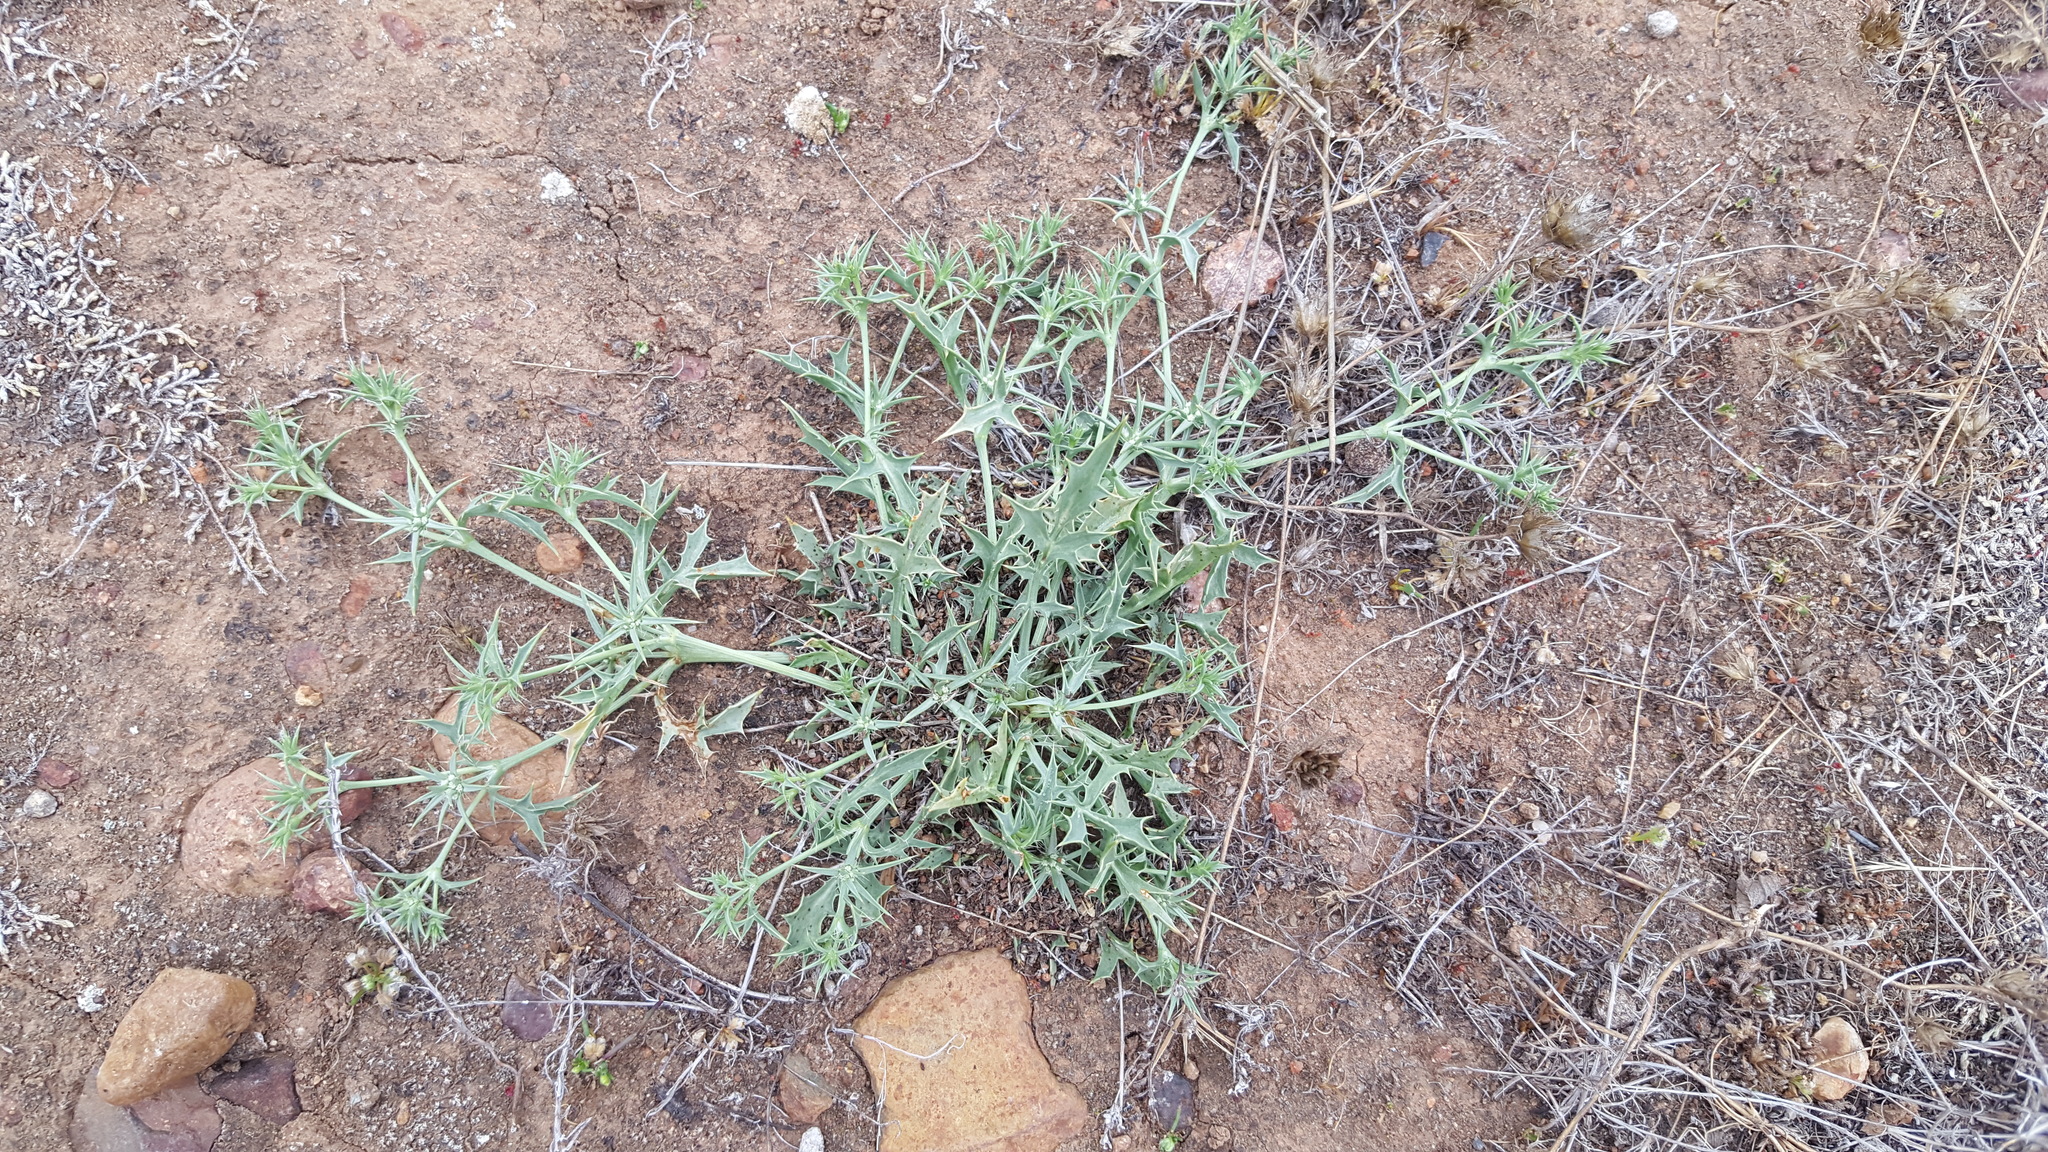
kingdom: Plantae
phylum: Tracheophyta
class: Magnoliopsida
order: Apiales
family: Apiaceae
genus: Eryngium
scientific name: Eryngium aristulatum
